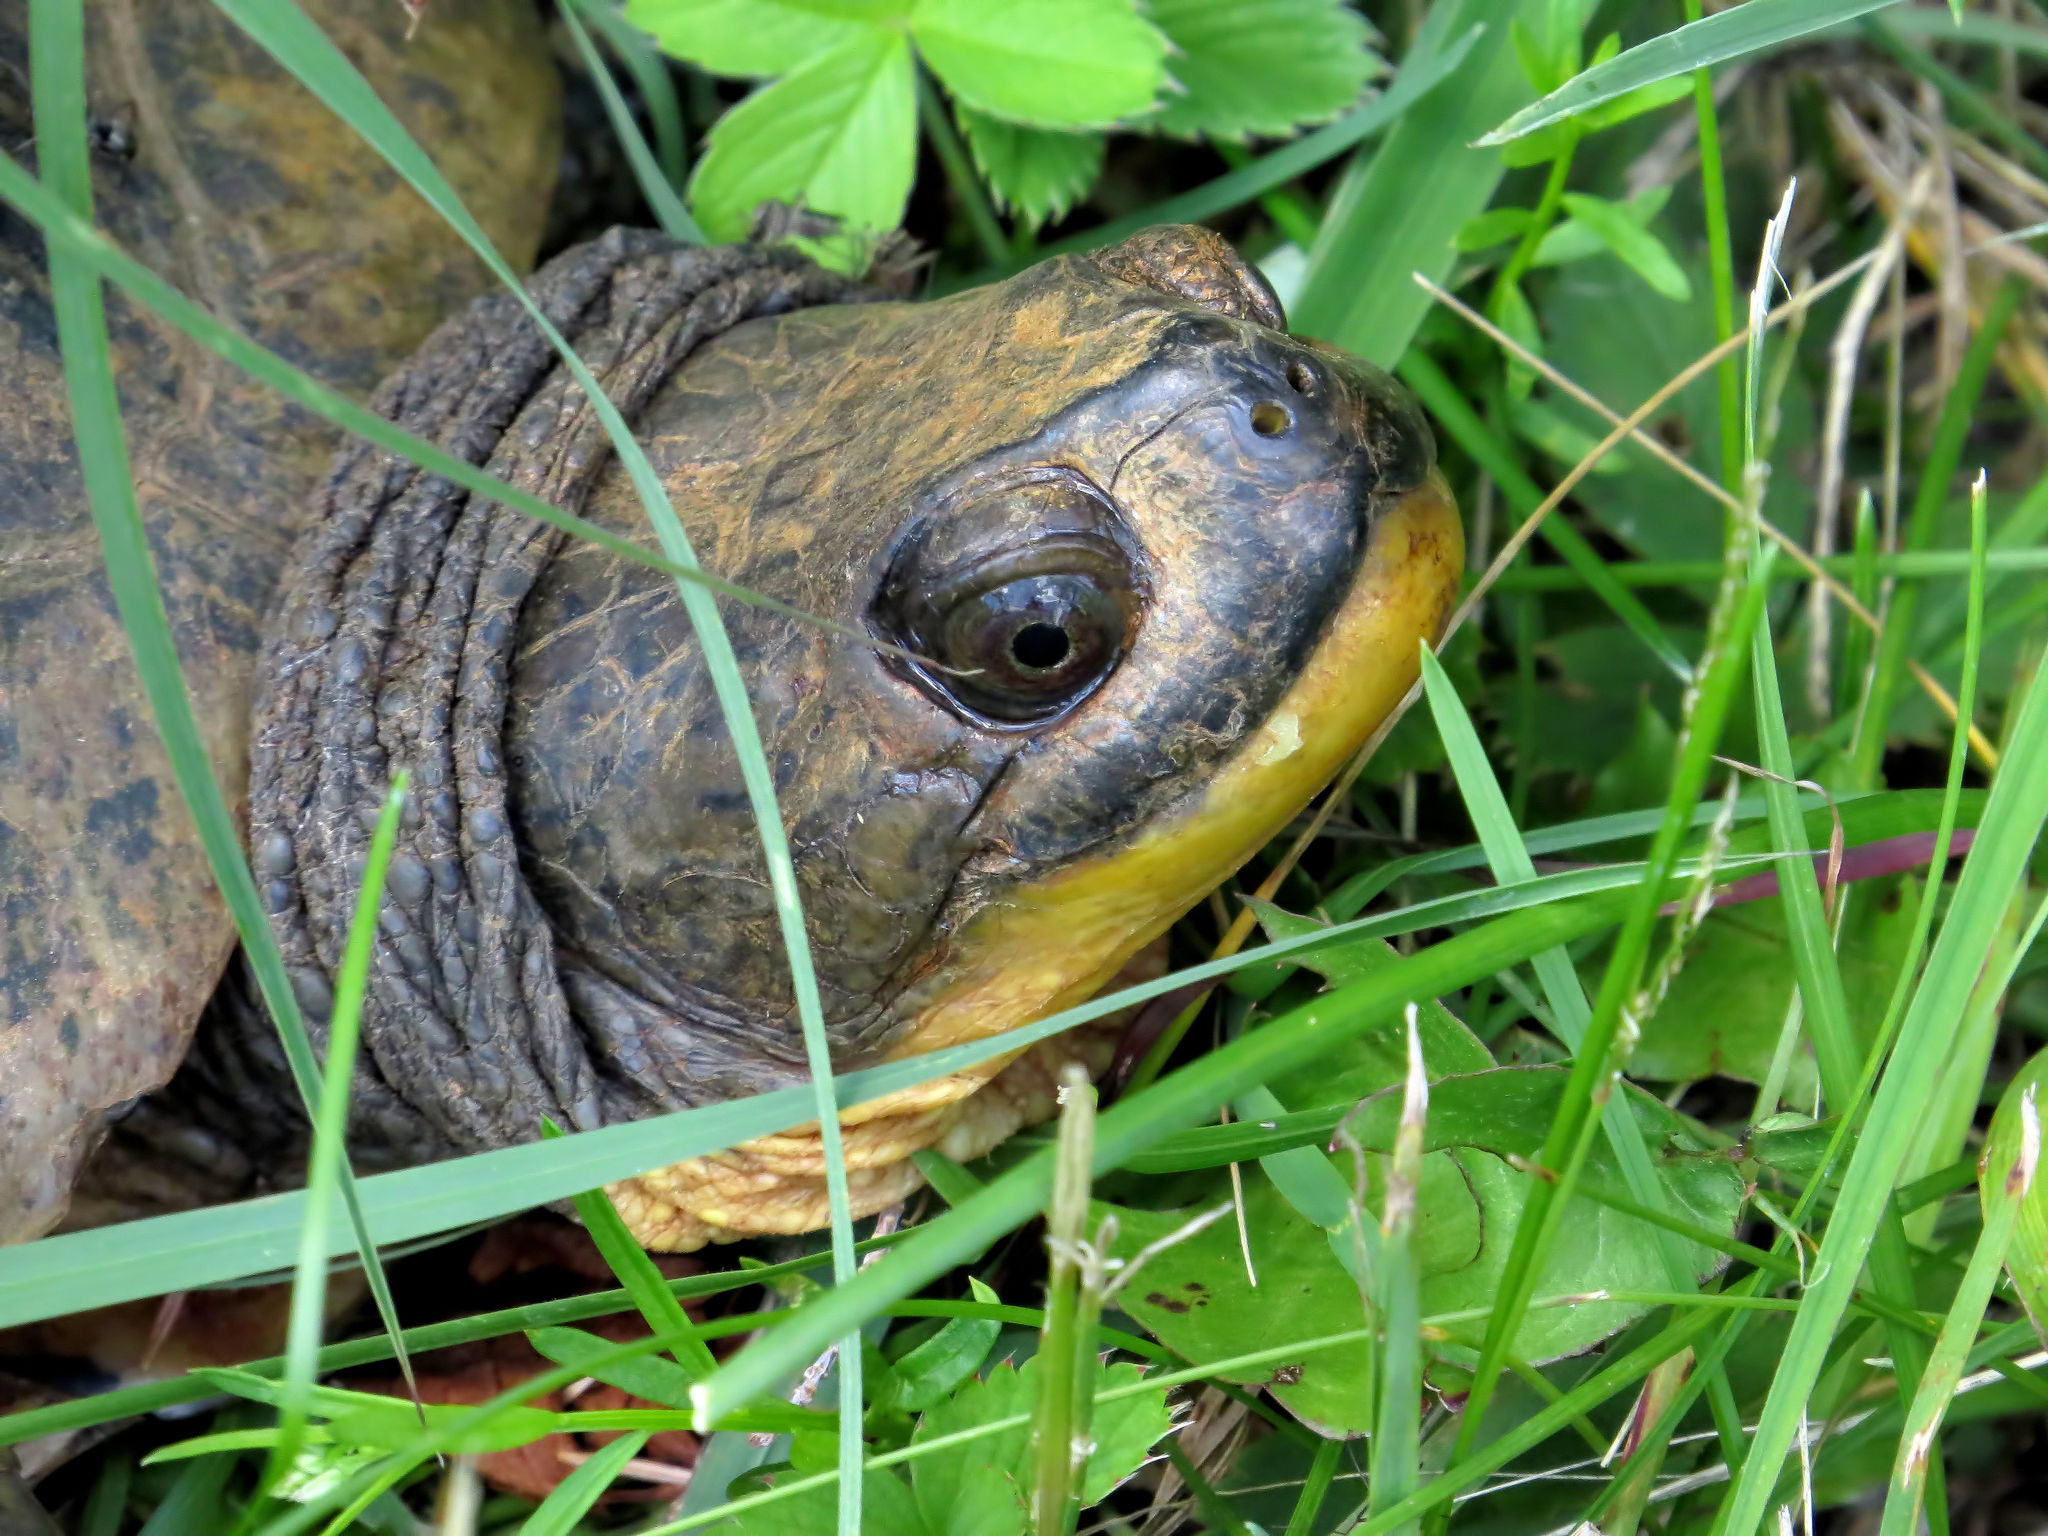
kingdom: Animalia
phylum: Chordata
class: Testudines
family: Emydidae
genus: Emys
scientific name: Emys blandingii
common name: Blanding's turtle
